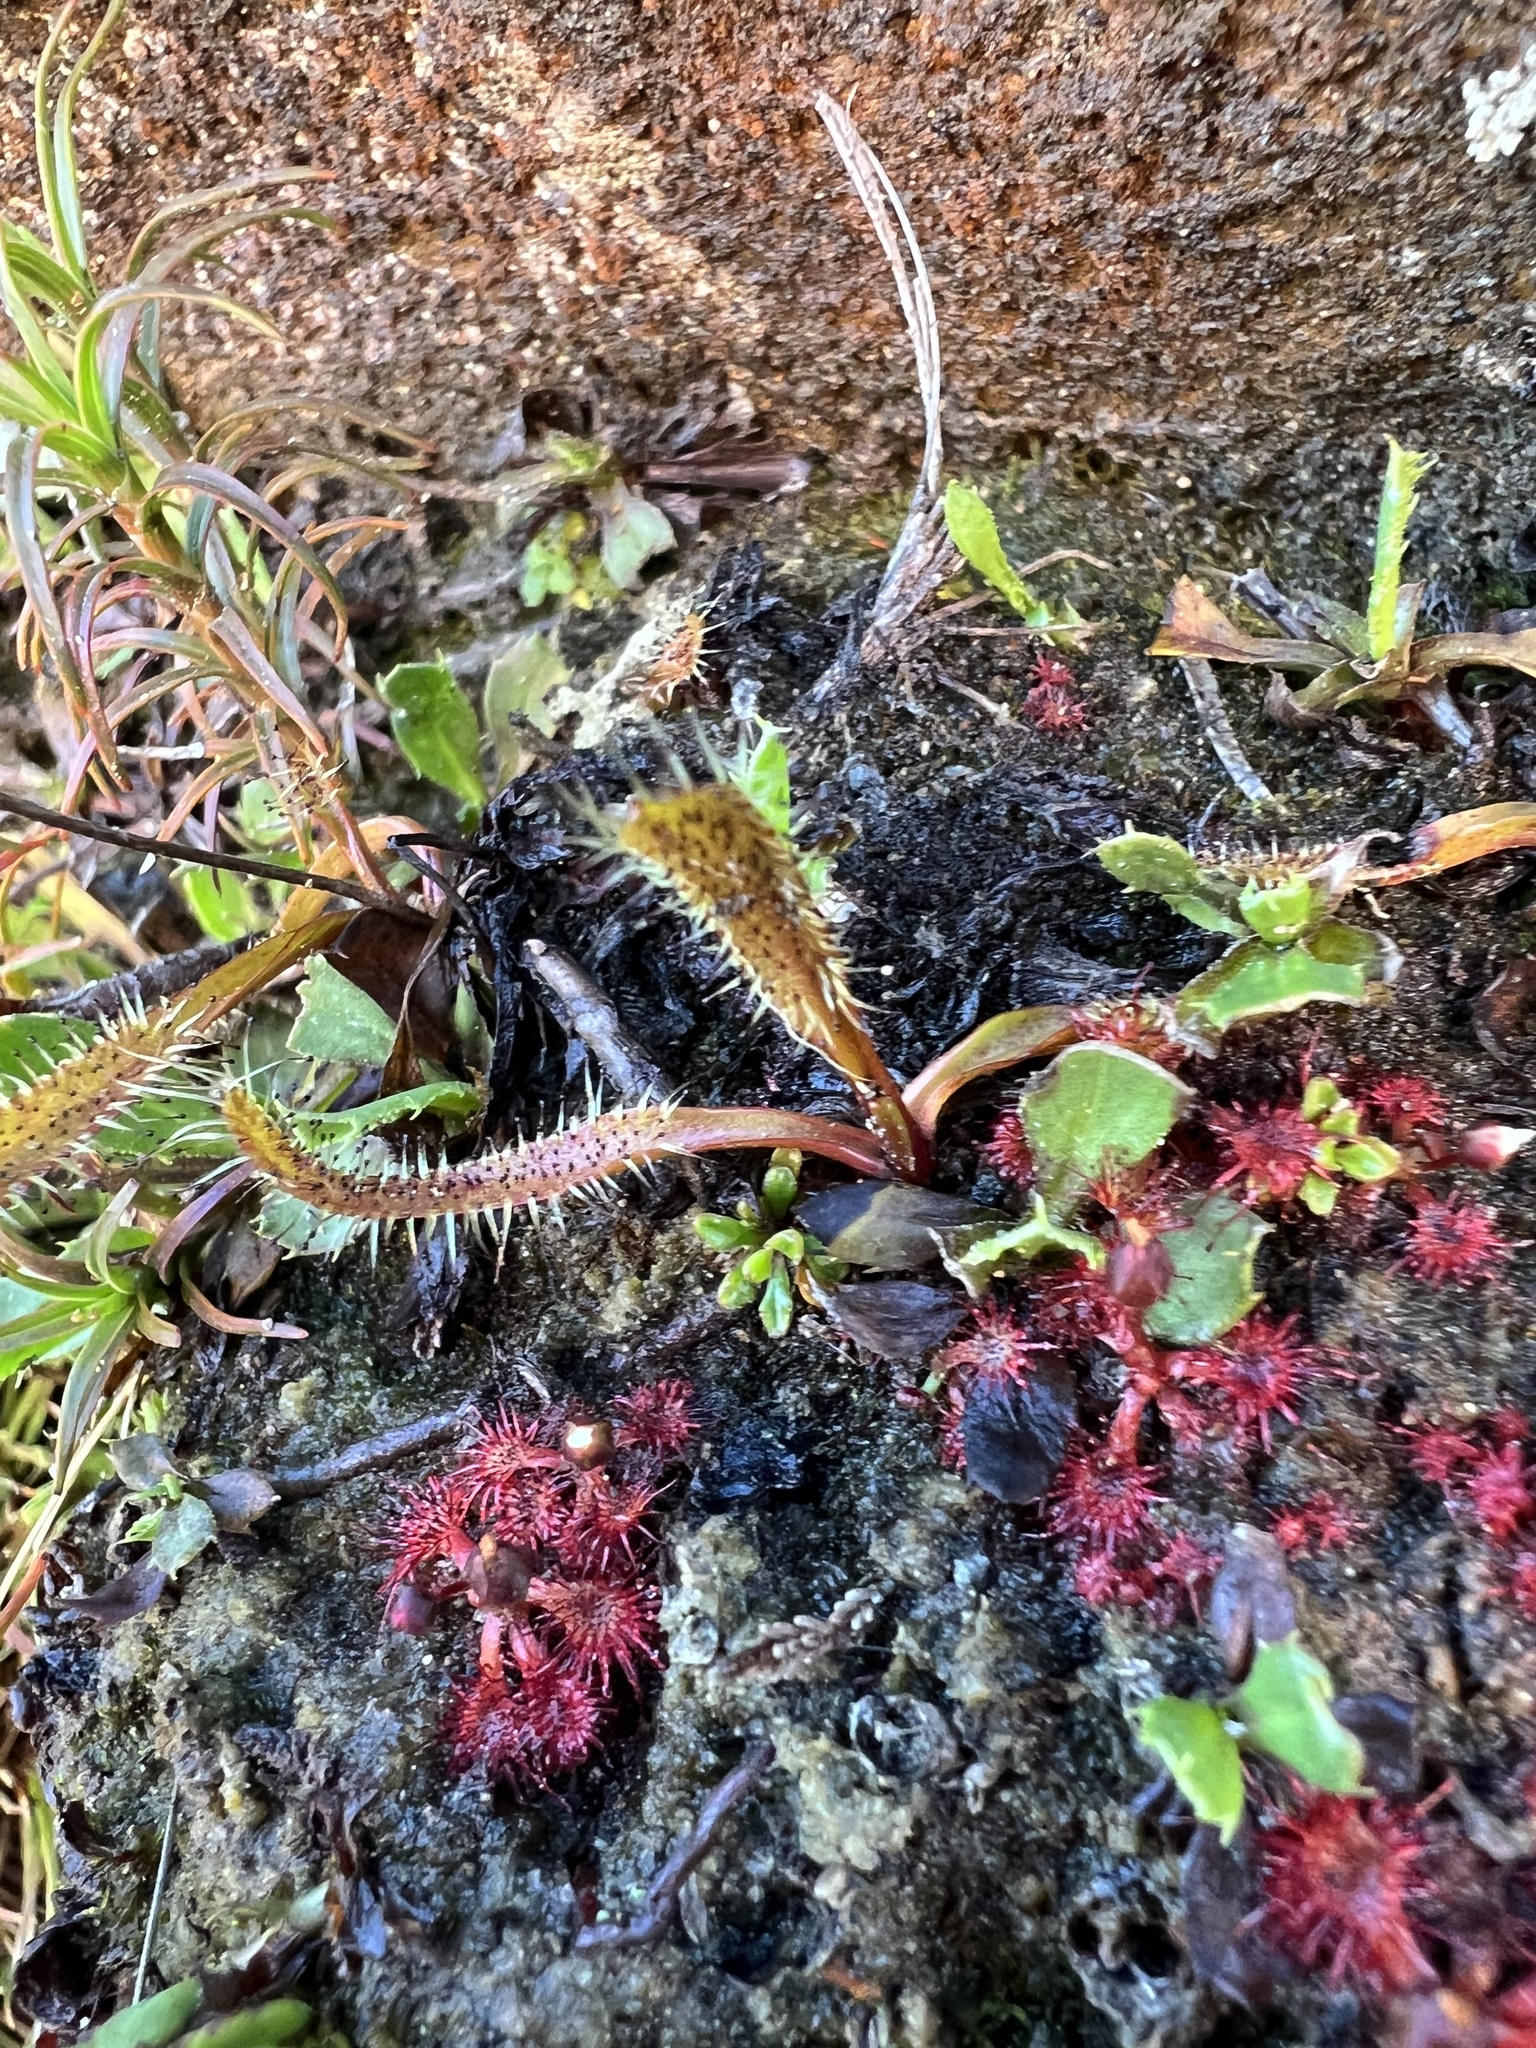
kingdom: Plantae
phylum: Tracheophyta
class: Magnoliopsida
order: Caryophyllales
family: Droseraceae
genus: Drosera
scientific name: Drosera arcturi
